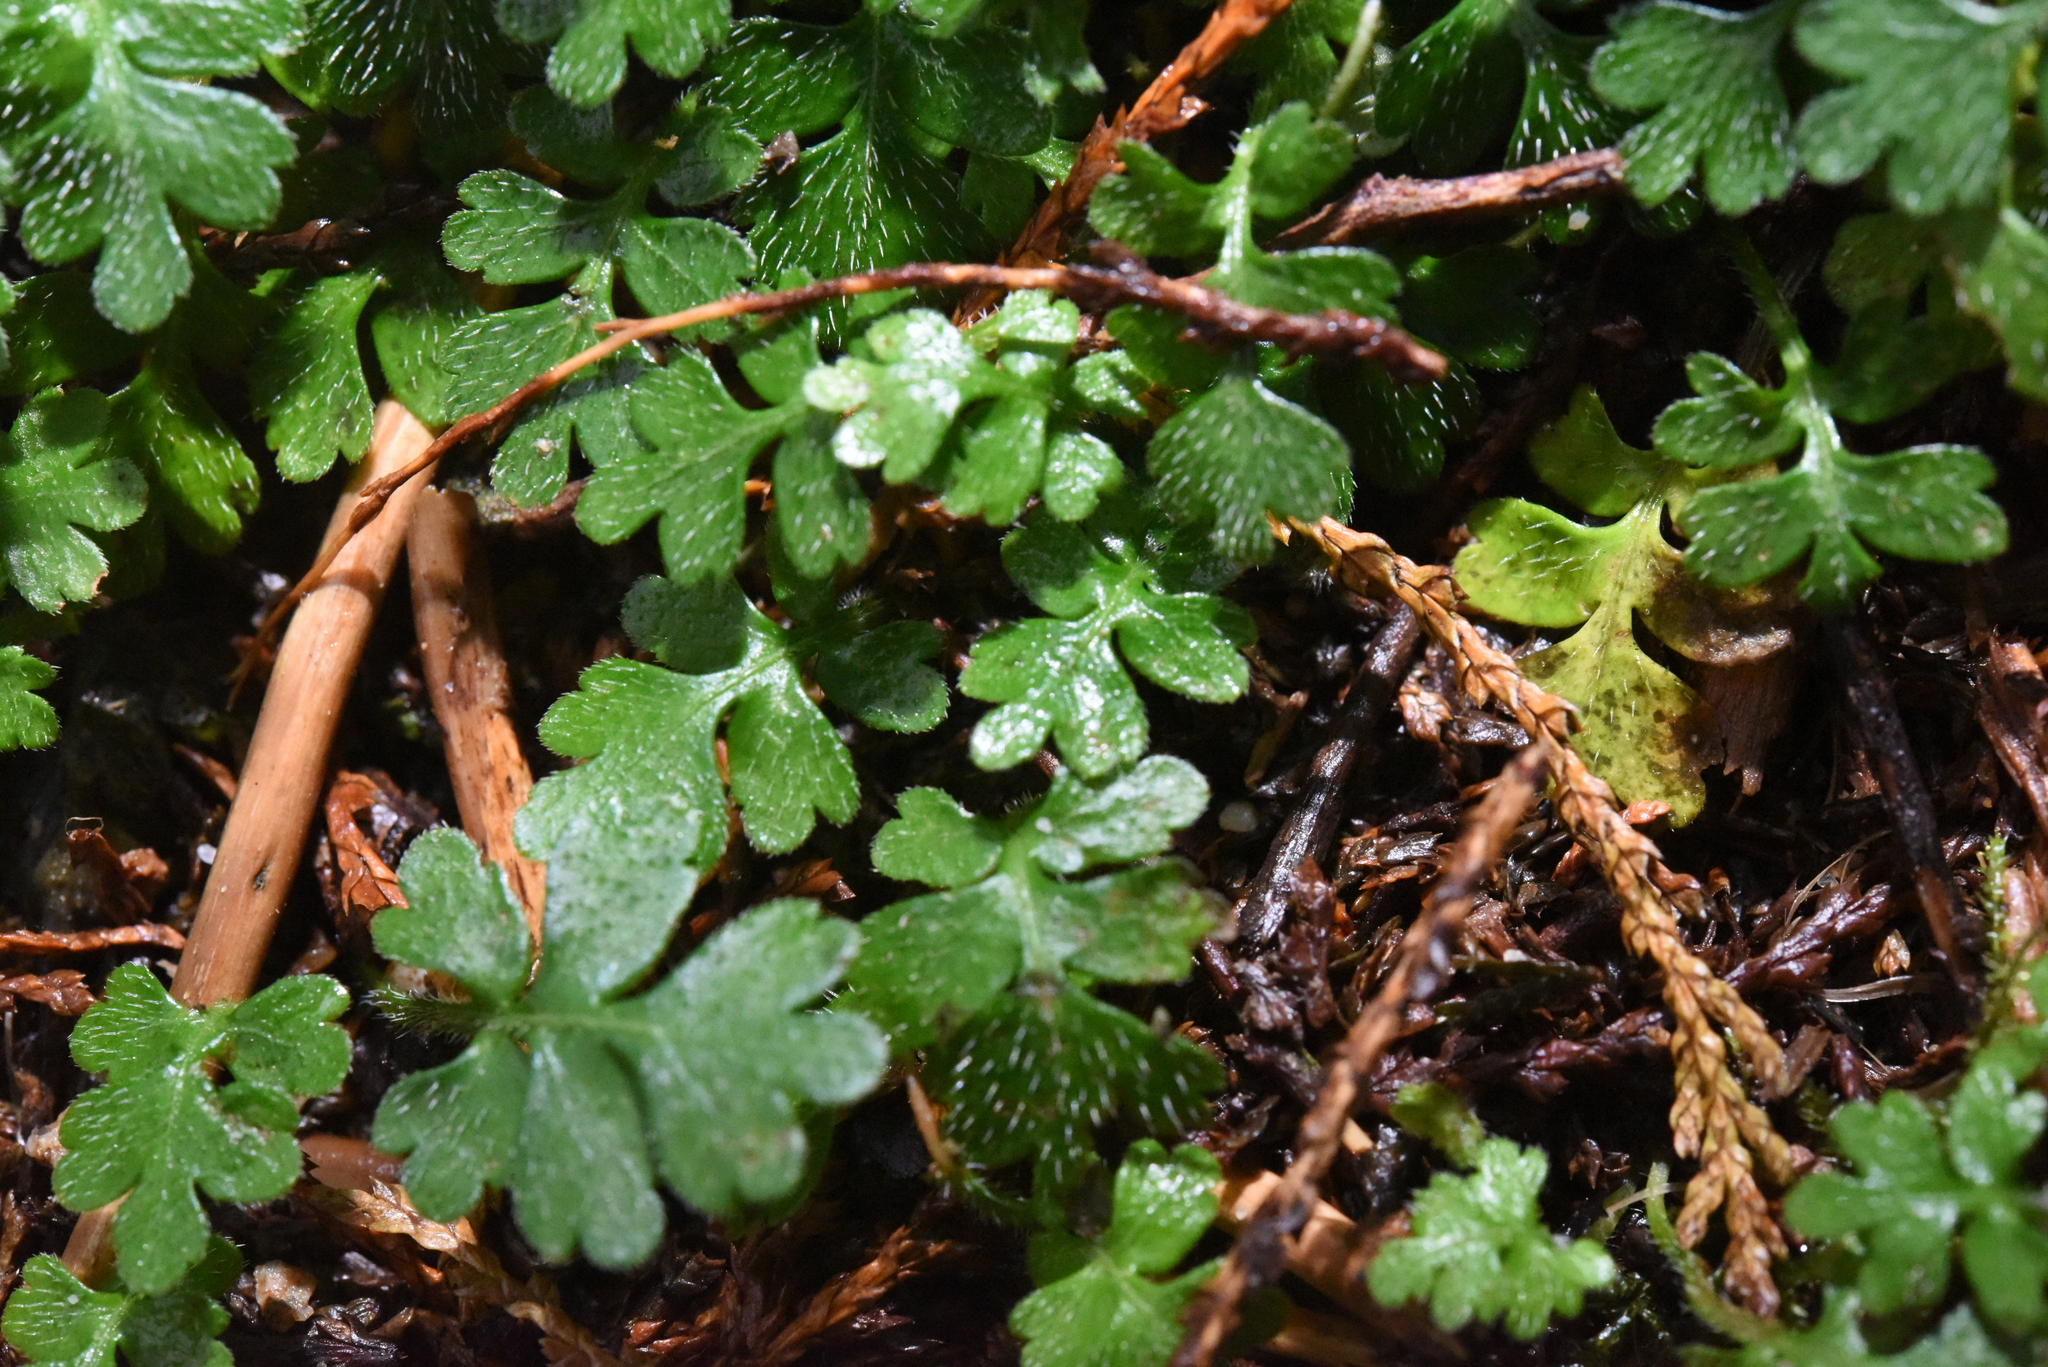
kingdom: Plantae
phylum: Tracheophyta
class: Magnoliopsida
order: Lamiales
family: Plantaginaceae
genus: Ellisiophyllum
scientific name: Ellisiophyllum pinnatum
